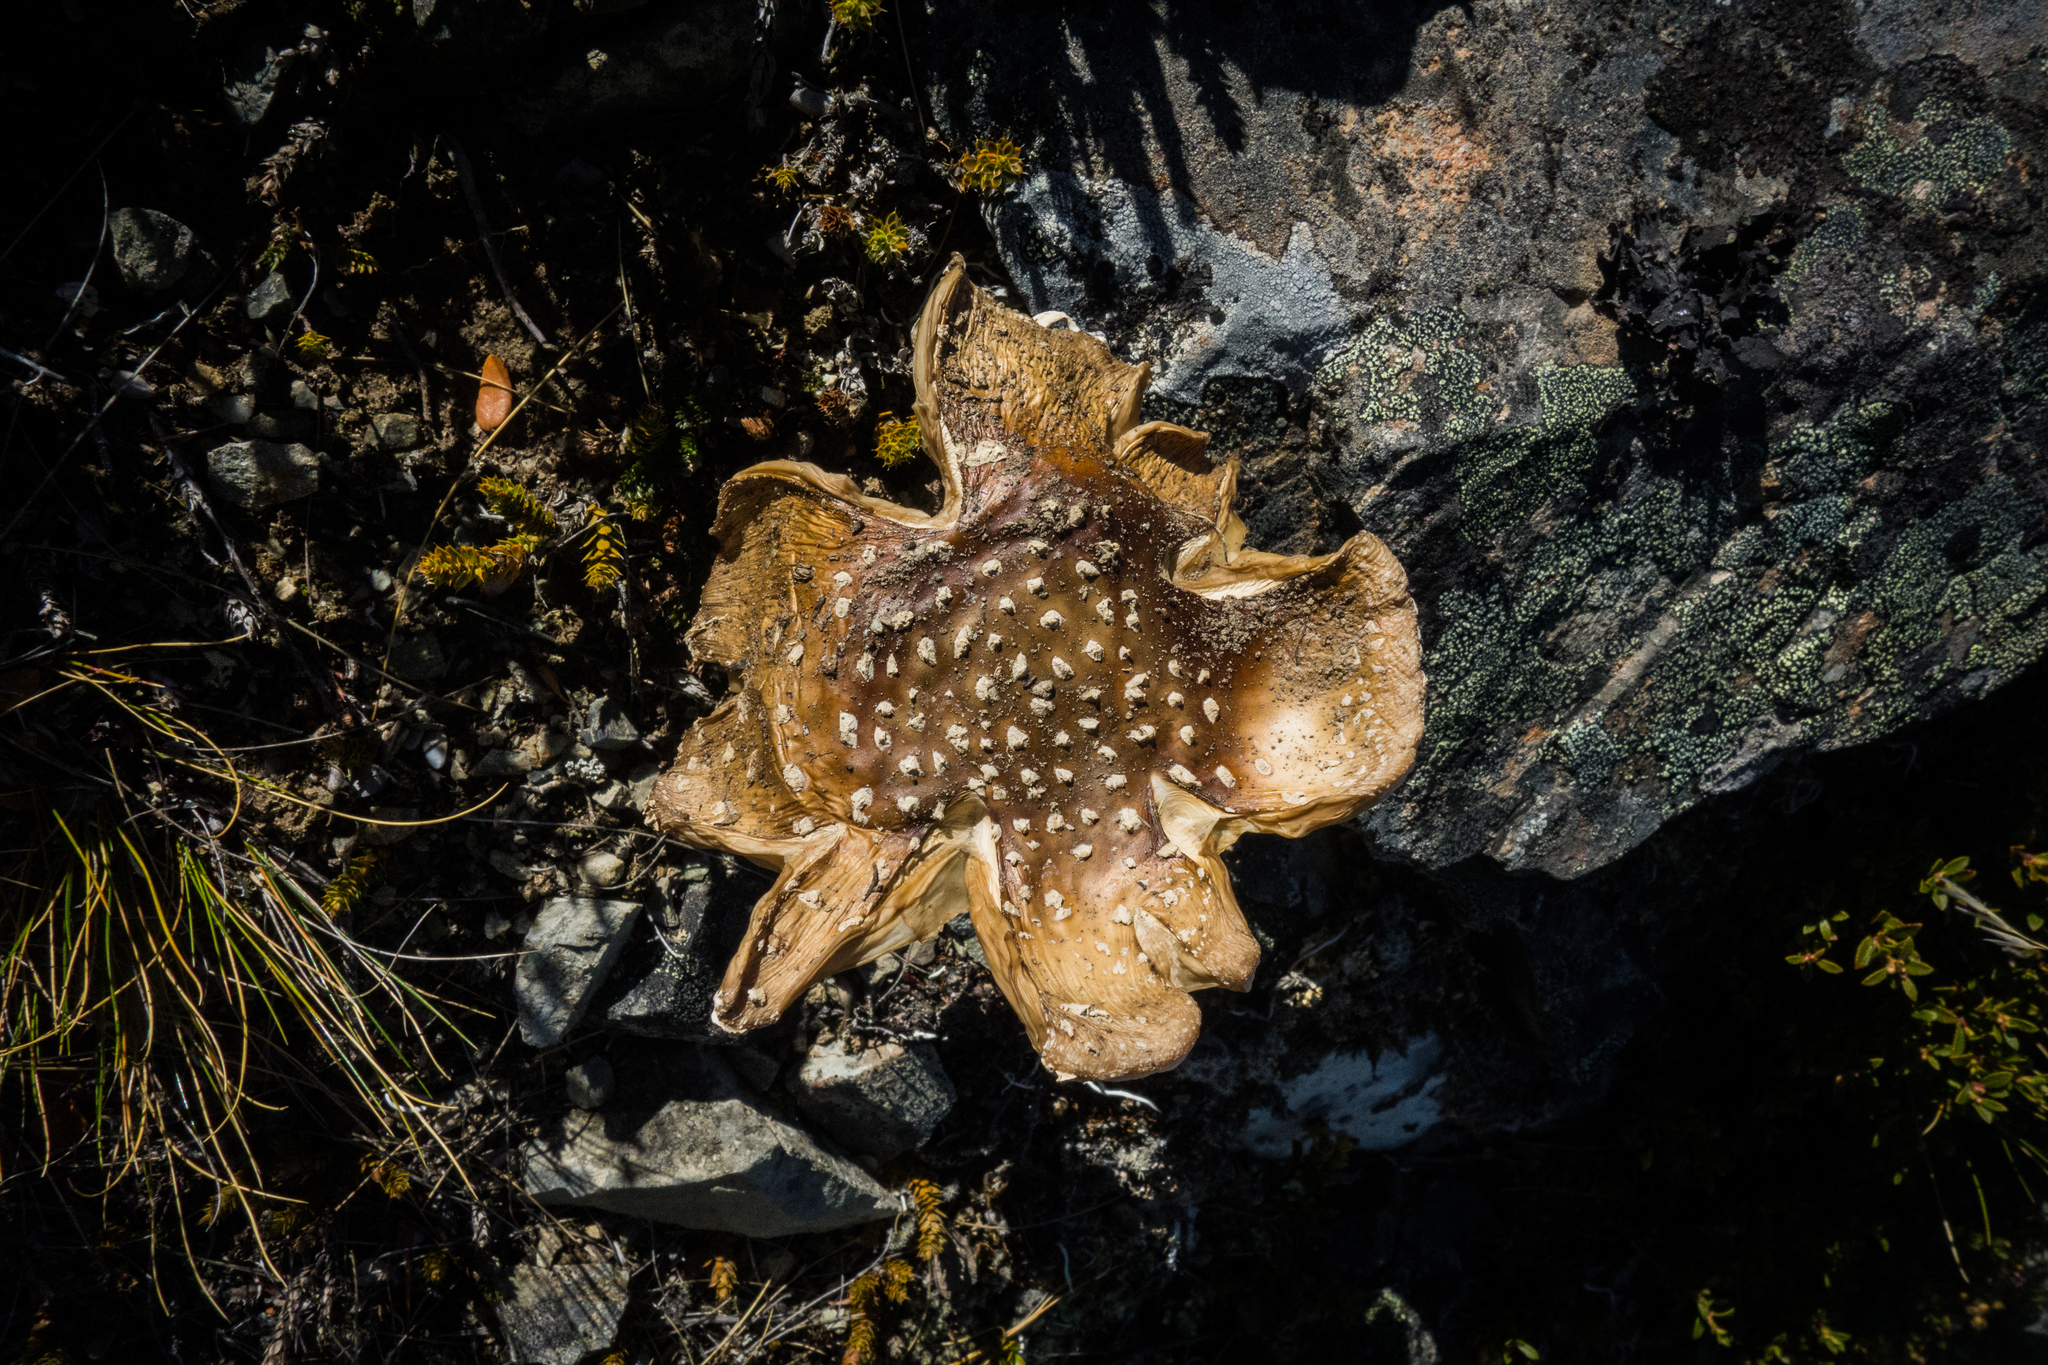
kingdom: Fungi
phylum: Basidiomycota
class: Agaricomycetes
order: Agaricales
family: Amanitaceae
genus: Amanita
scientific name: Amanita muscaria
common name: Fly agaric
